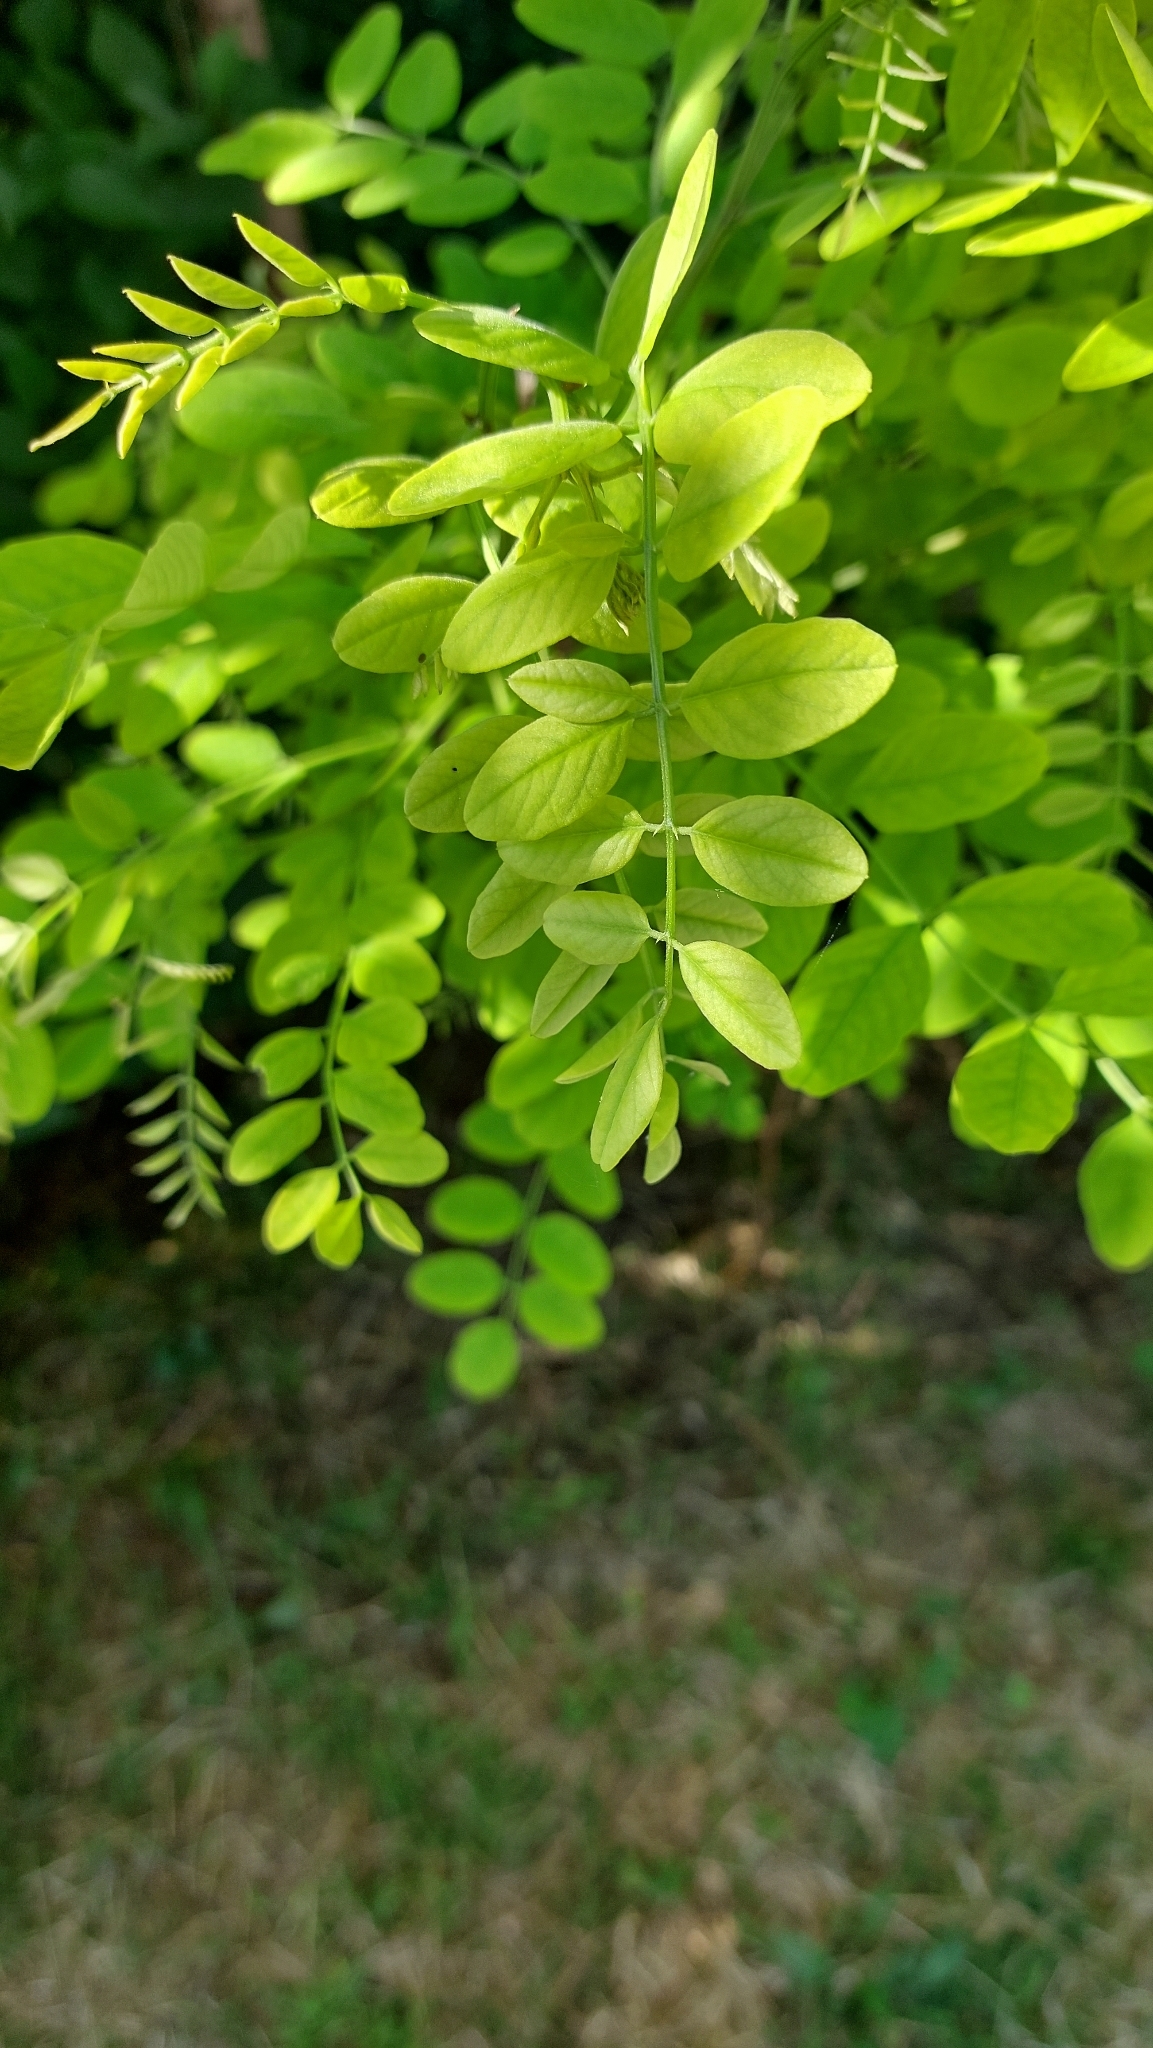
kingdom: Plantae
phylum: Tracheophyta
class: Magnoliopsida
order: Fabales
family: Fabaceae
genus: Robinia
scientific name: Robinia pseudoacacia
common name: Black locust
